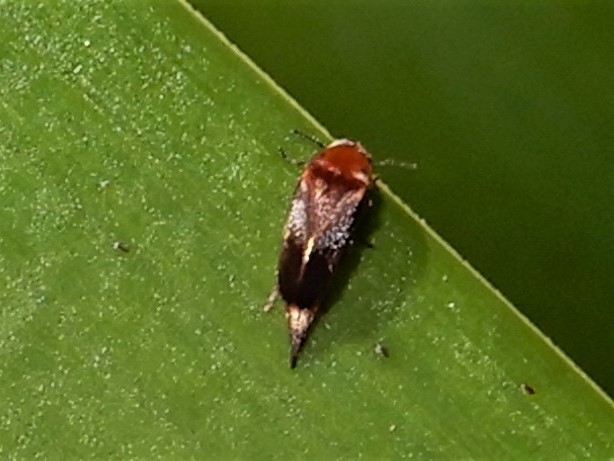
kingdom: Animalia
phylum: Arthropoda
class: Insecta
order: Coleoptera
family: Mordellidae
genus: Tolidopalpus
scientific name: Tolidopalpus
